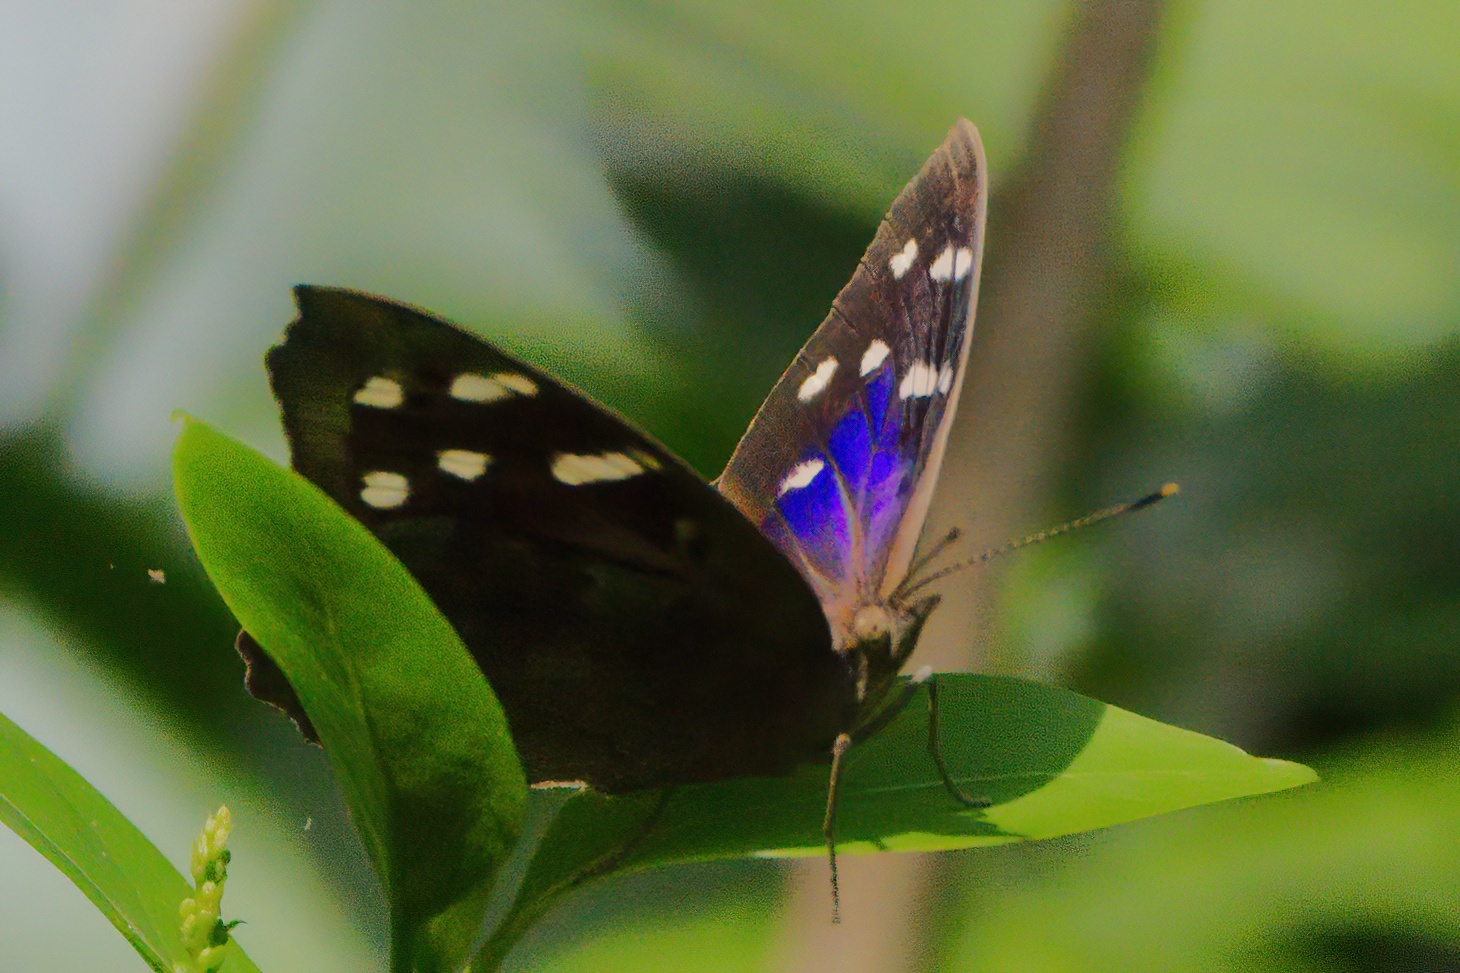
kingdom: Animalia
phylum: Arthropoda
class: Insecta
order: Lepidoptera
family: Nymphalidae
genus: Eunica
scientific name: Eunica tatila
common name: Florida purplewing
